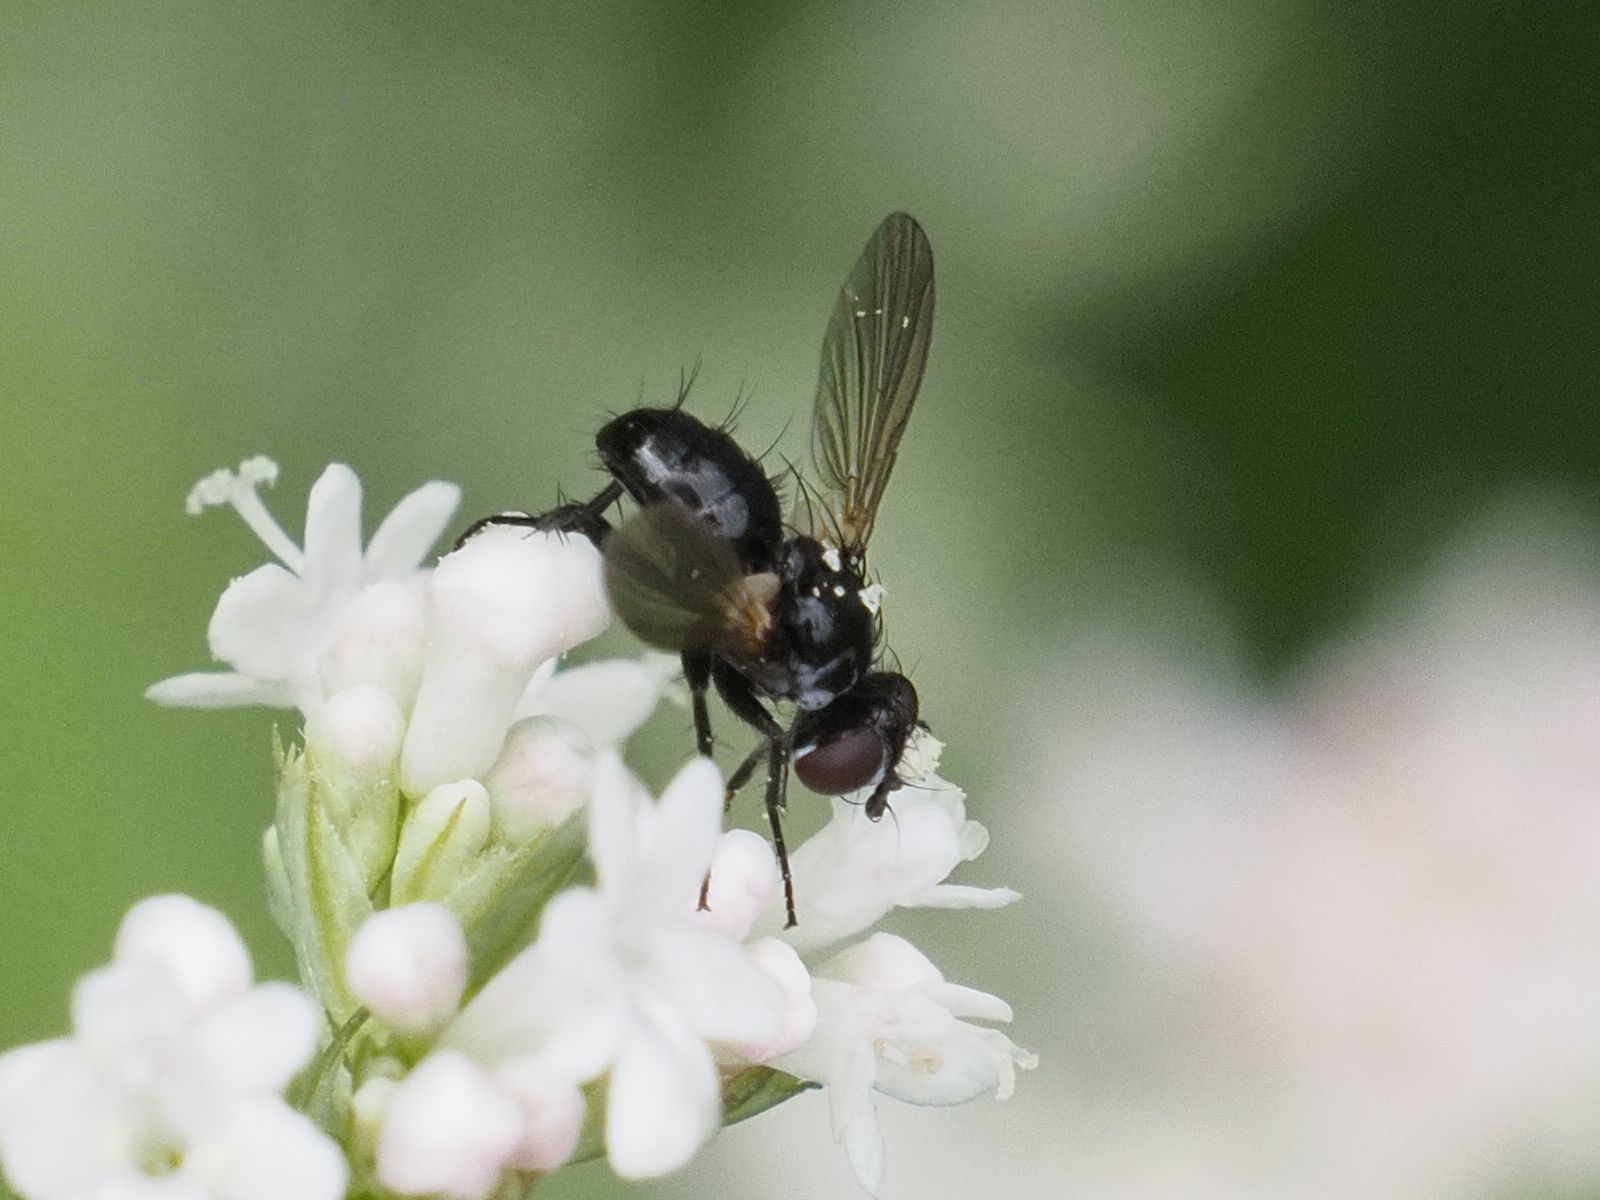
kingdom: Animalia
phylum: Arthropoda
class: Insecta
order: Diptera
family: Tachinidae
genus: Phania
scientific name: Phania funesta
